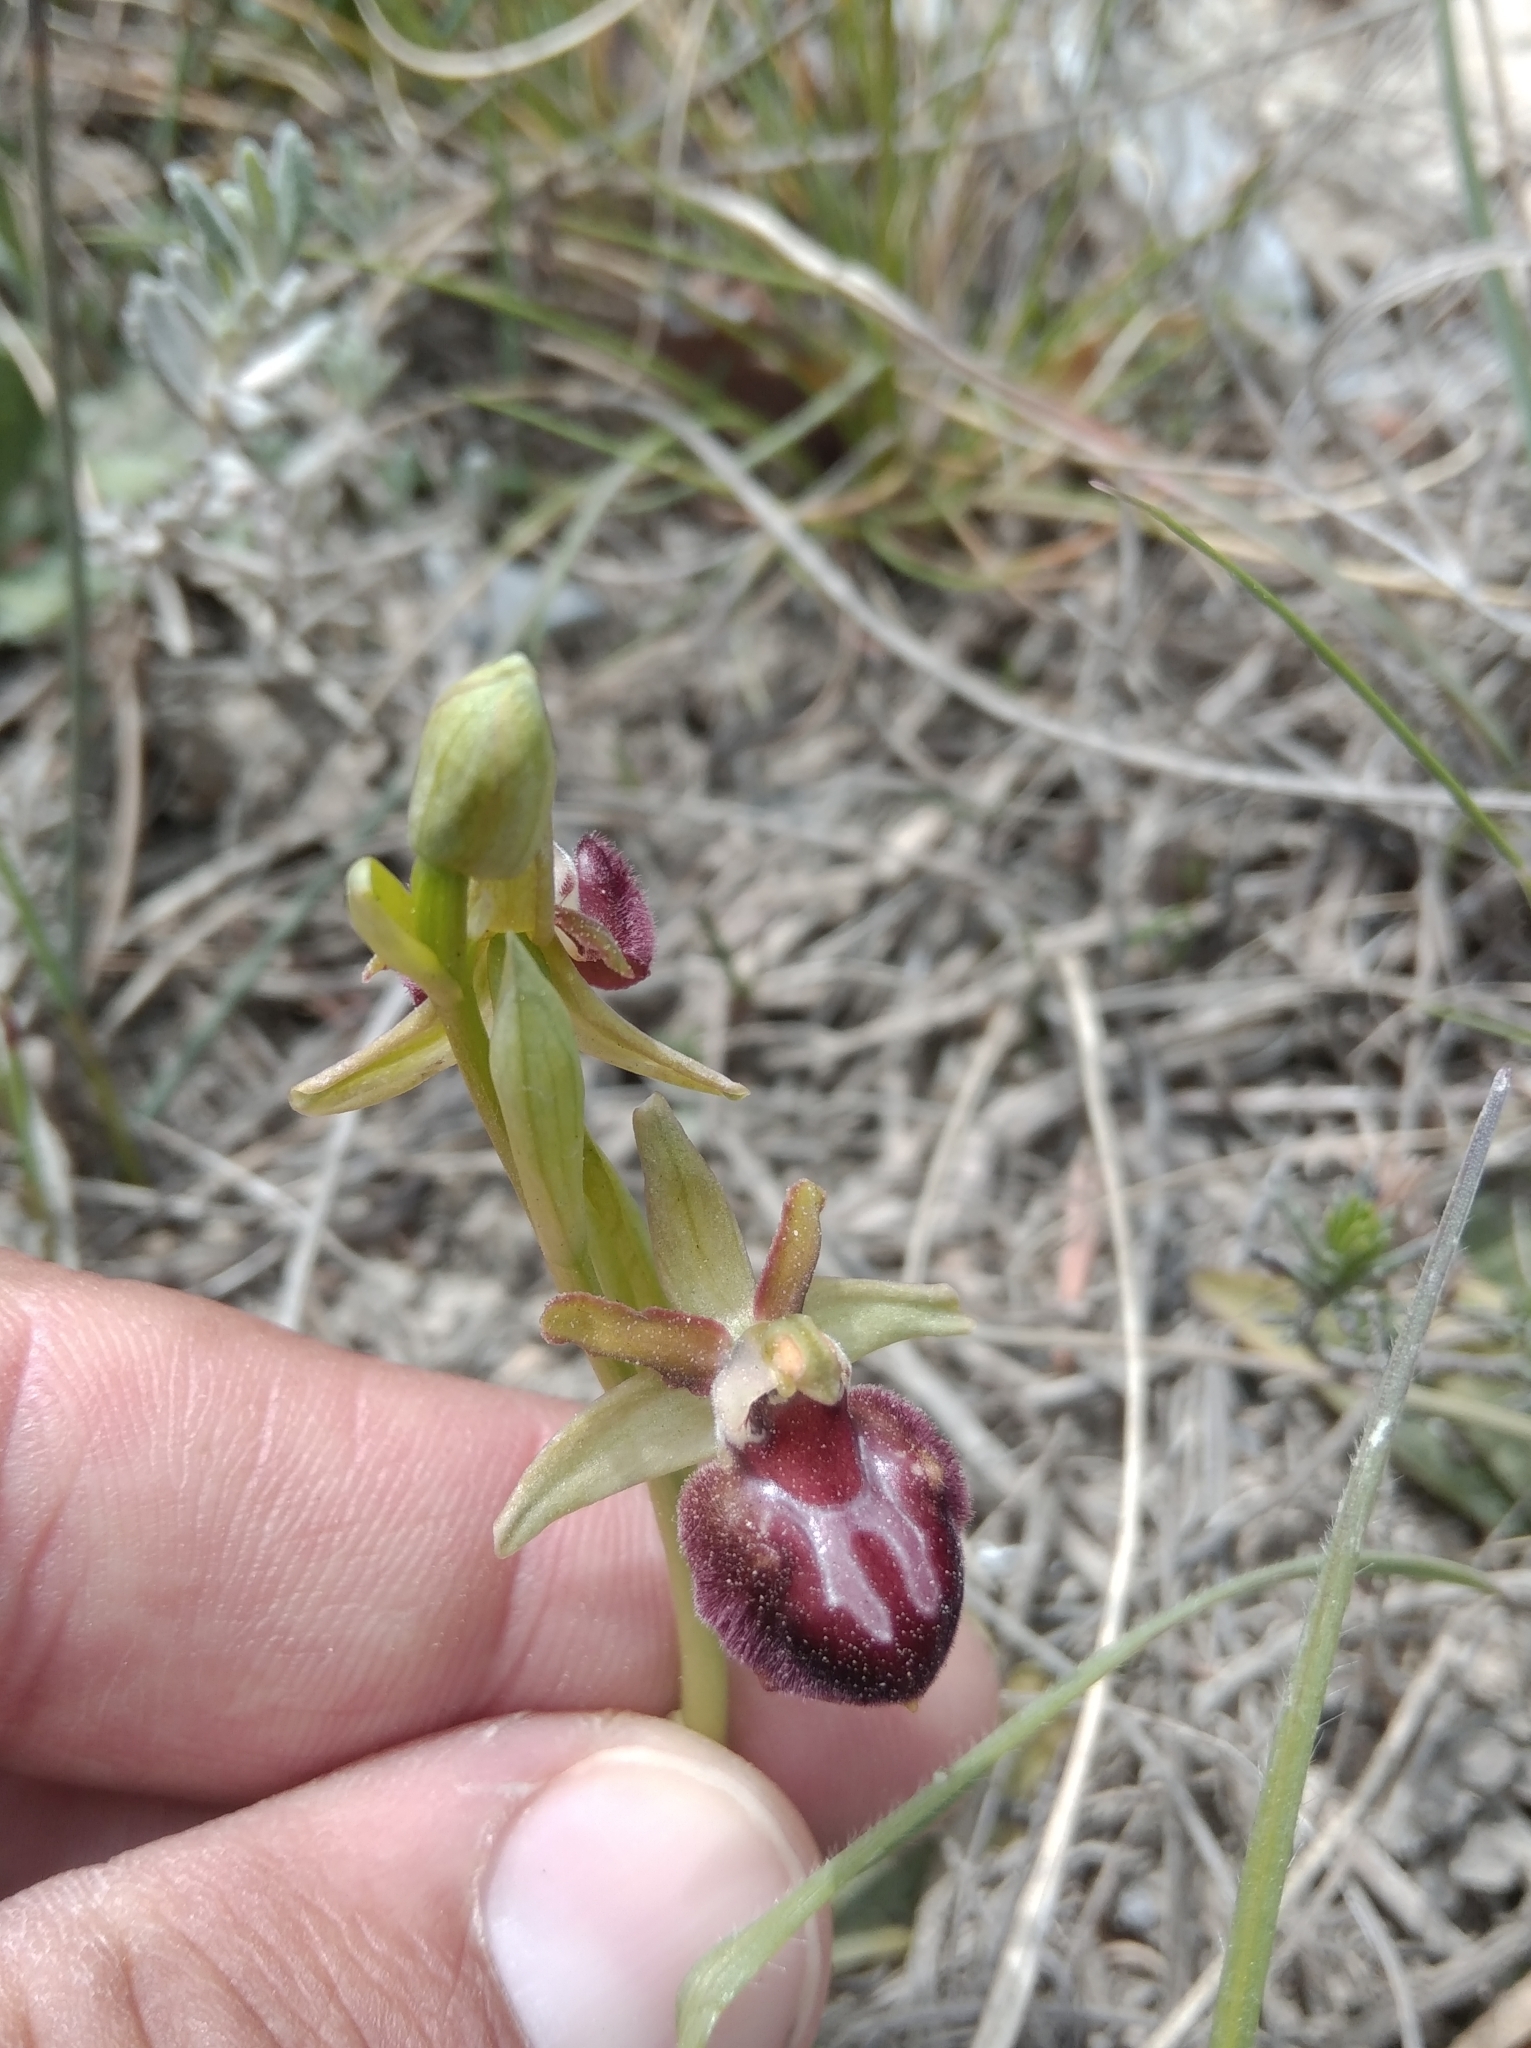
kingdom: Plantae
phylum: Tracheophyta
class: Liliopsida
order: Asparagales
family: Orchidaceae
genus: Ophrys
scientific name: Ophrys sphegodes
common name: Early spider-orchid
